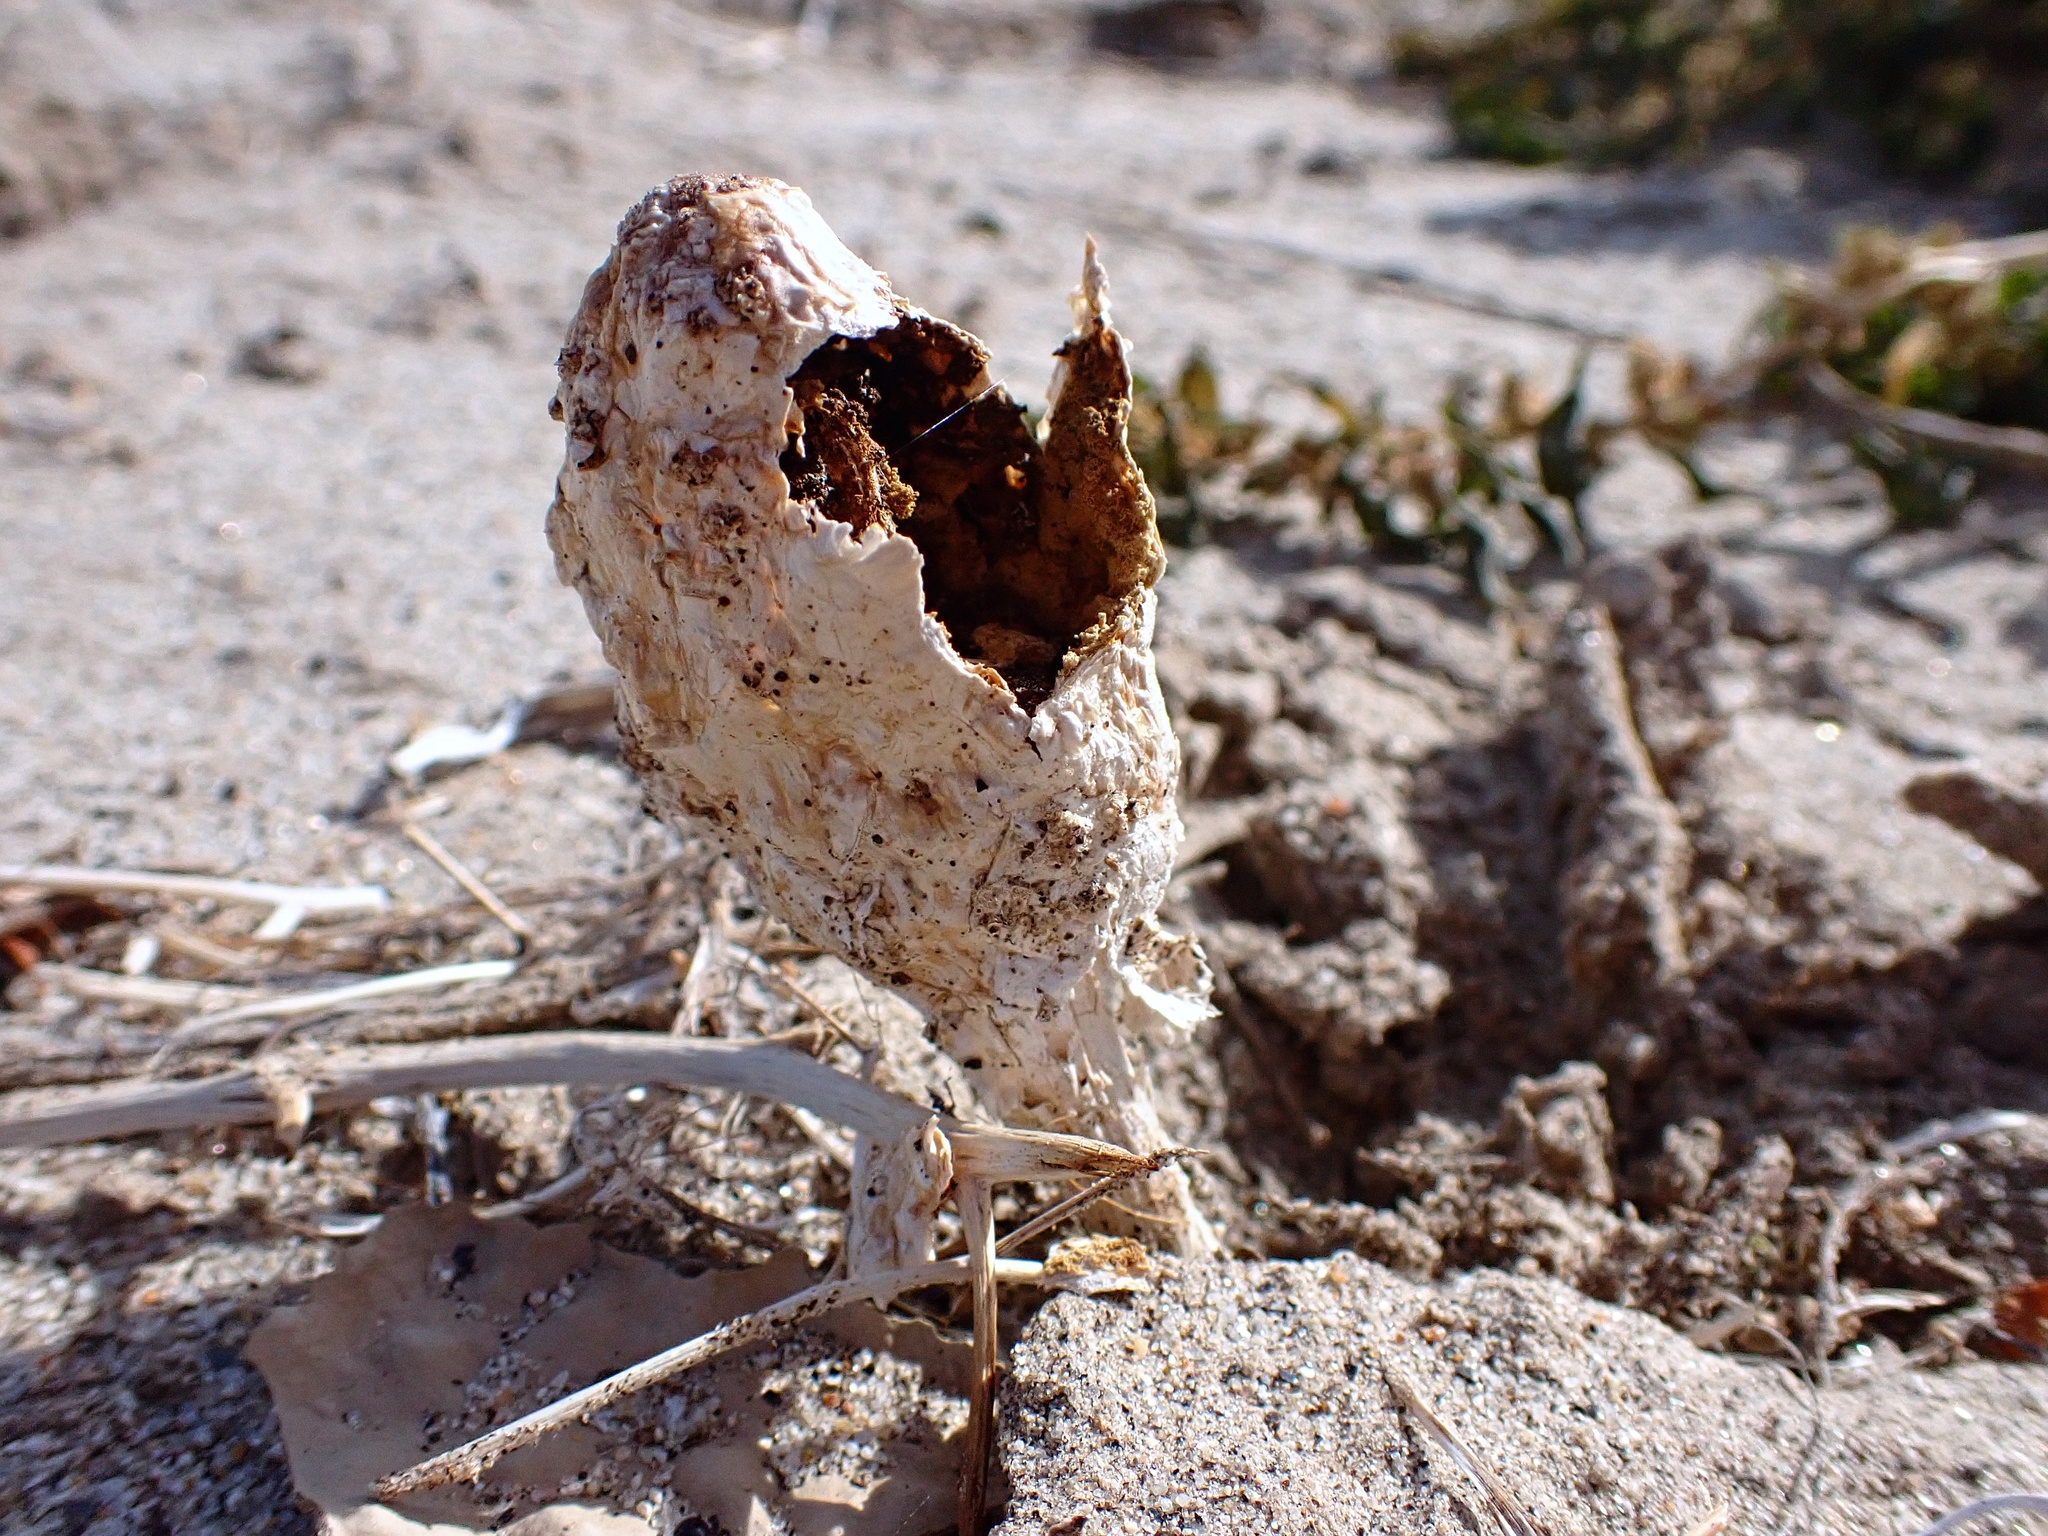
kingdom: Fungi
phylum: Basidiomycota
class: Agaricomycetes
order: Agaricales
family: Agaricaceae
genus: Podaxis
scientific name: Podaxis pistillaris
